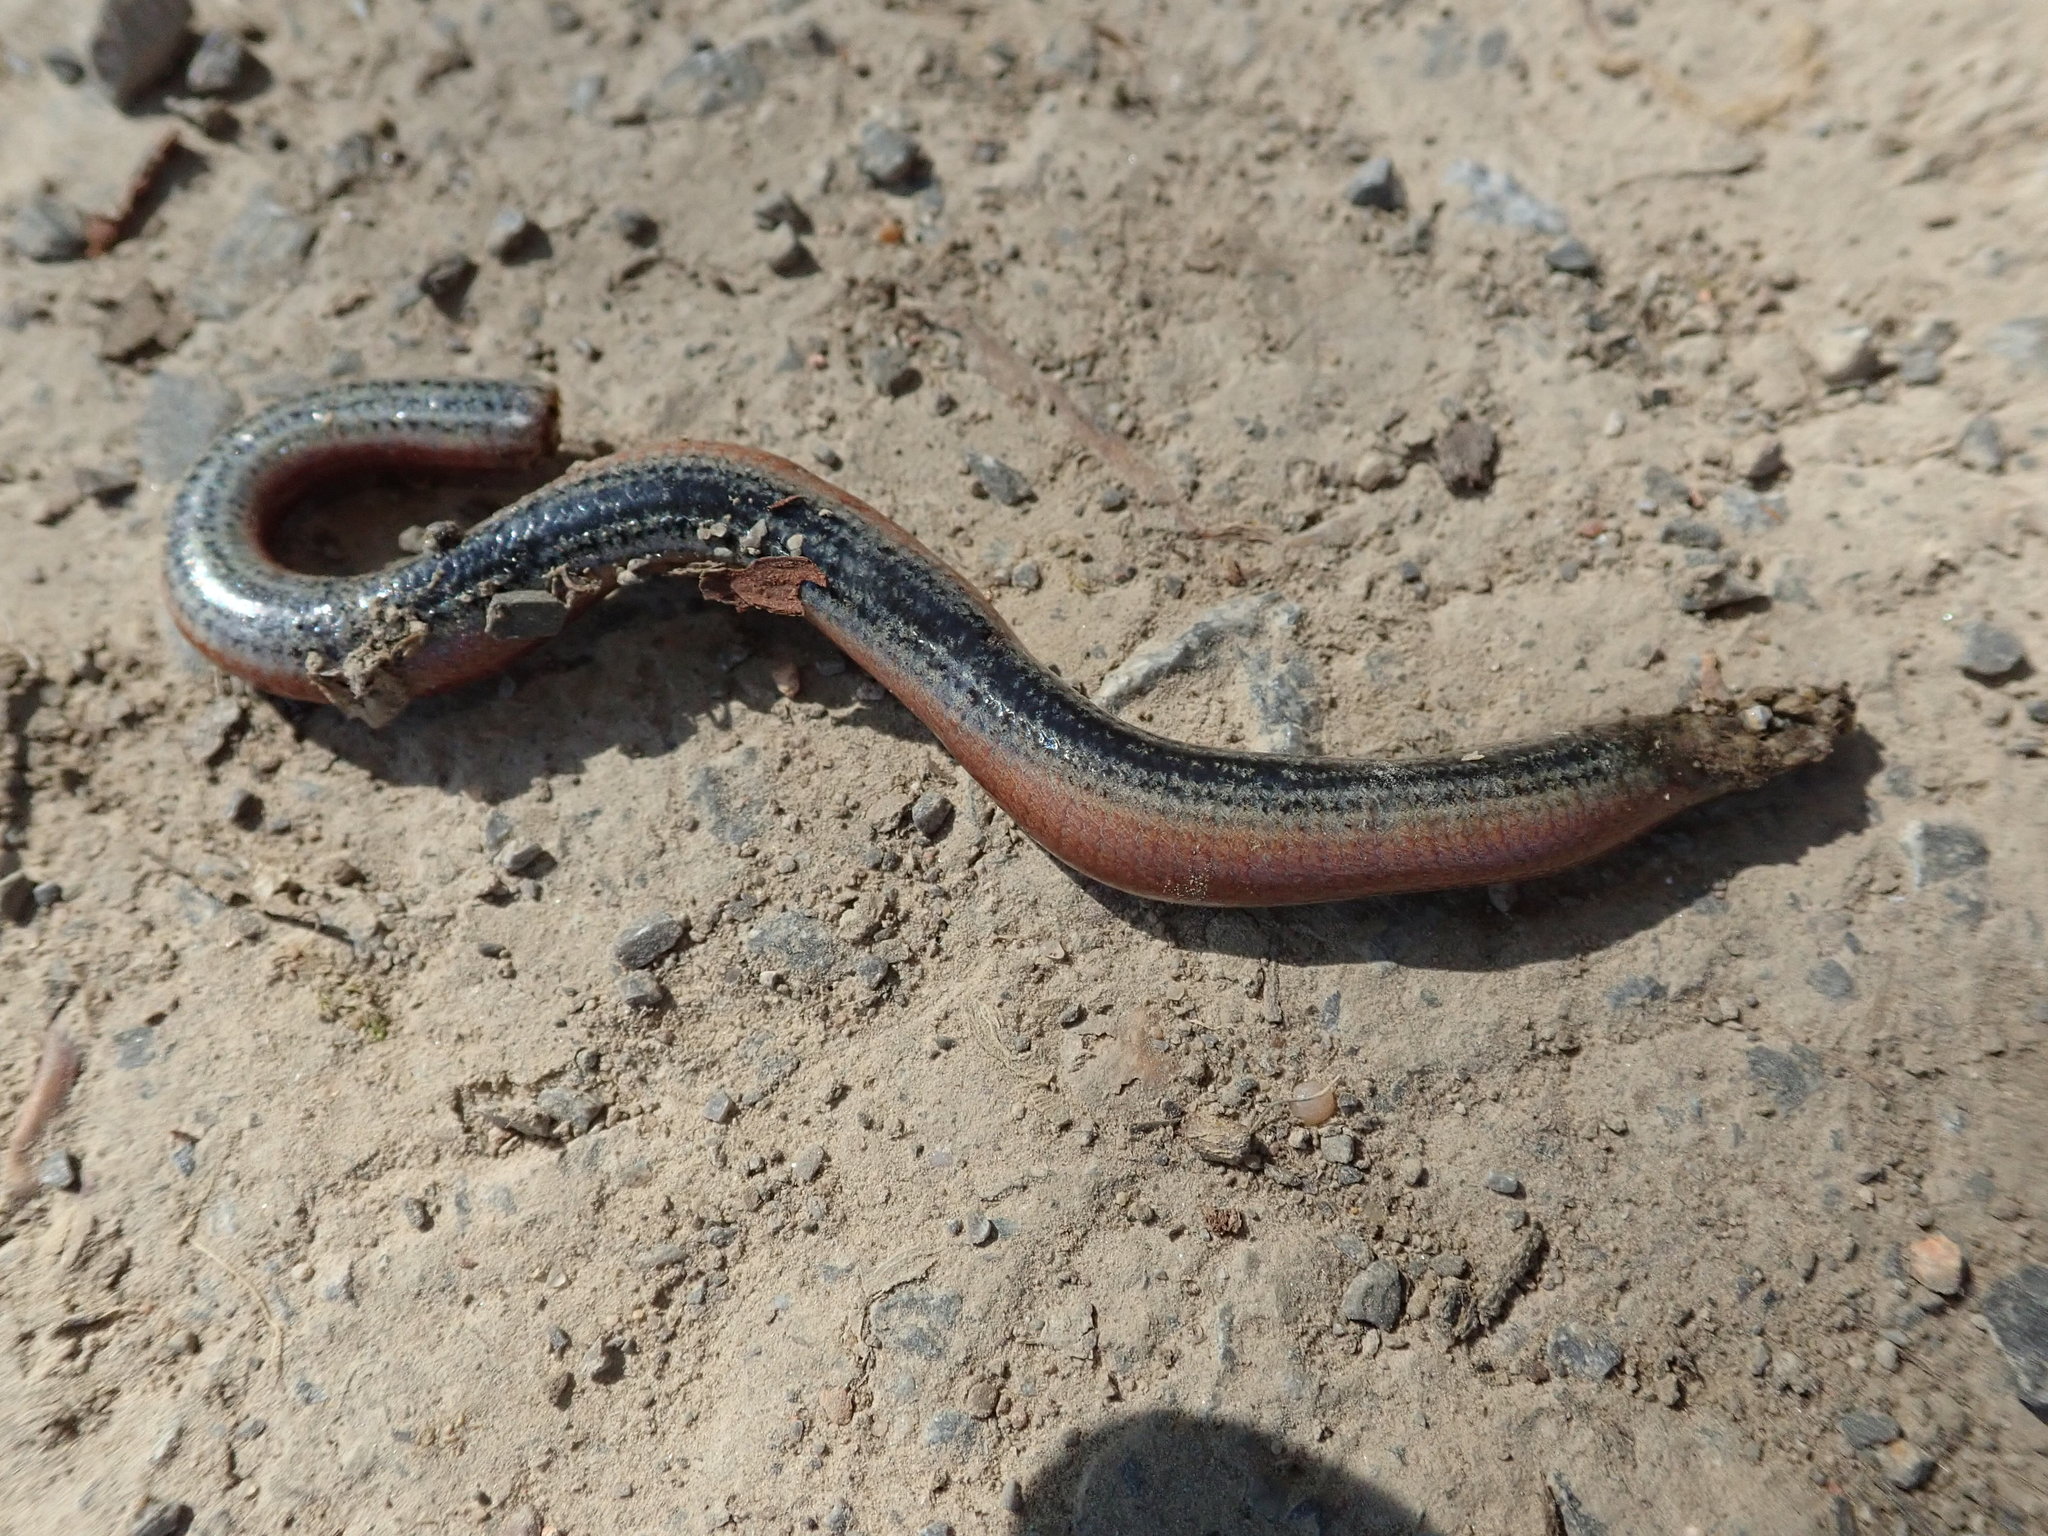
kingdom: Animalia
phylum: Chordata
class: Squamata
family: Anguidae
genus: Anguis
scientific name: Anguis fragilis
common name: Slow worm
